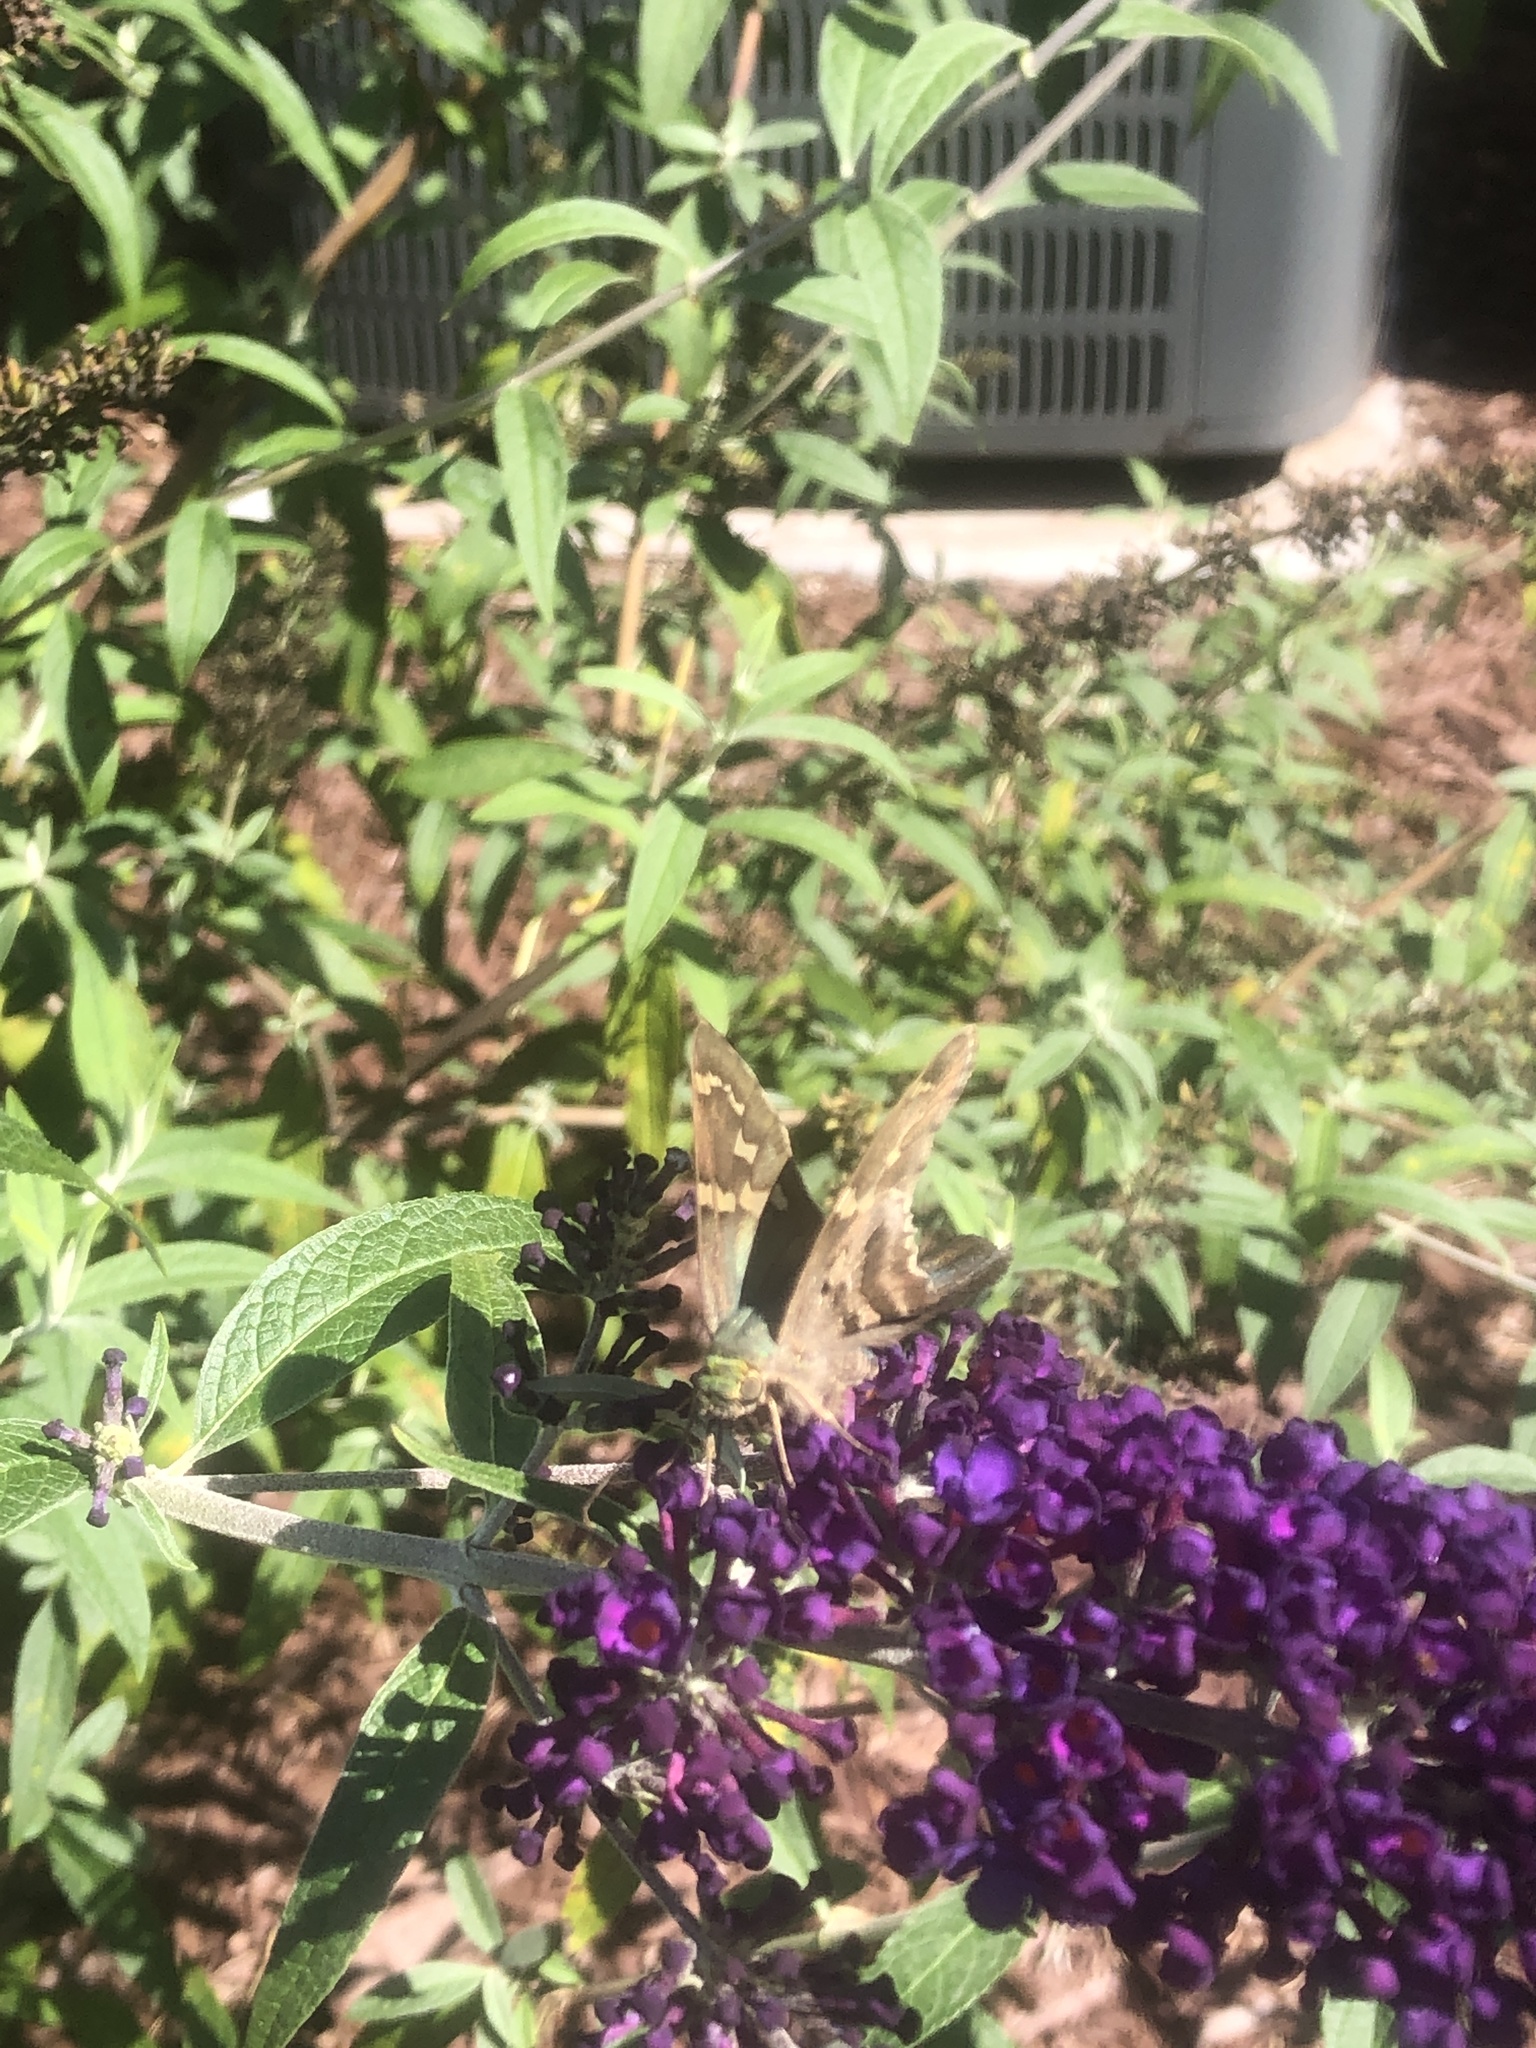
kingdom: Animalia
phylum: Arthropoda
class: Insecta
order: Lepidoptera
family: Hesperiidae
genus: Urbanus
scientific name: Urbanus proteus
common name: Long-tailed skipper
